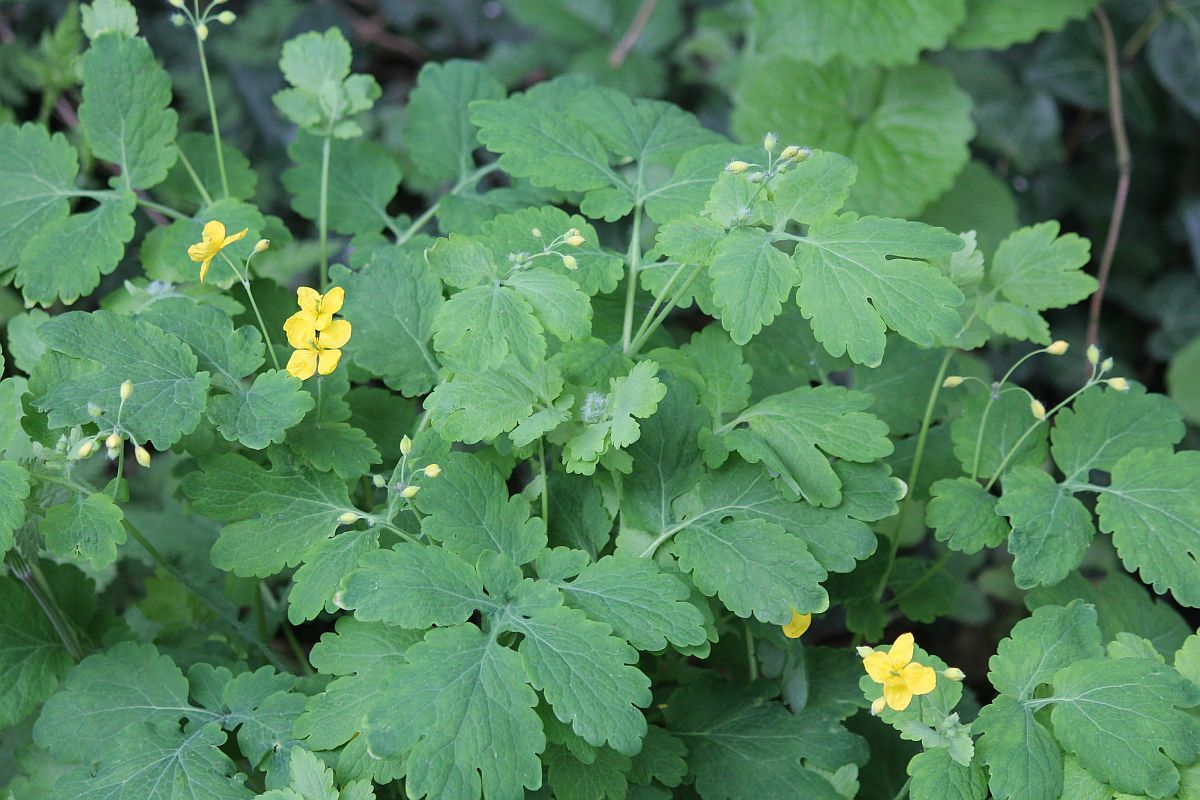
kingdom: Plantae
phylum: Tracheophyta
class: Magnoliopsida
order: Ranunculales
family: Papaveraceae
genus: Chelidonium
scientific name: Chelidonium majus
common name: Greater celandine
